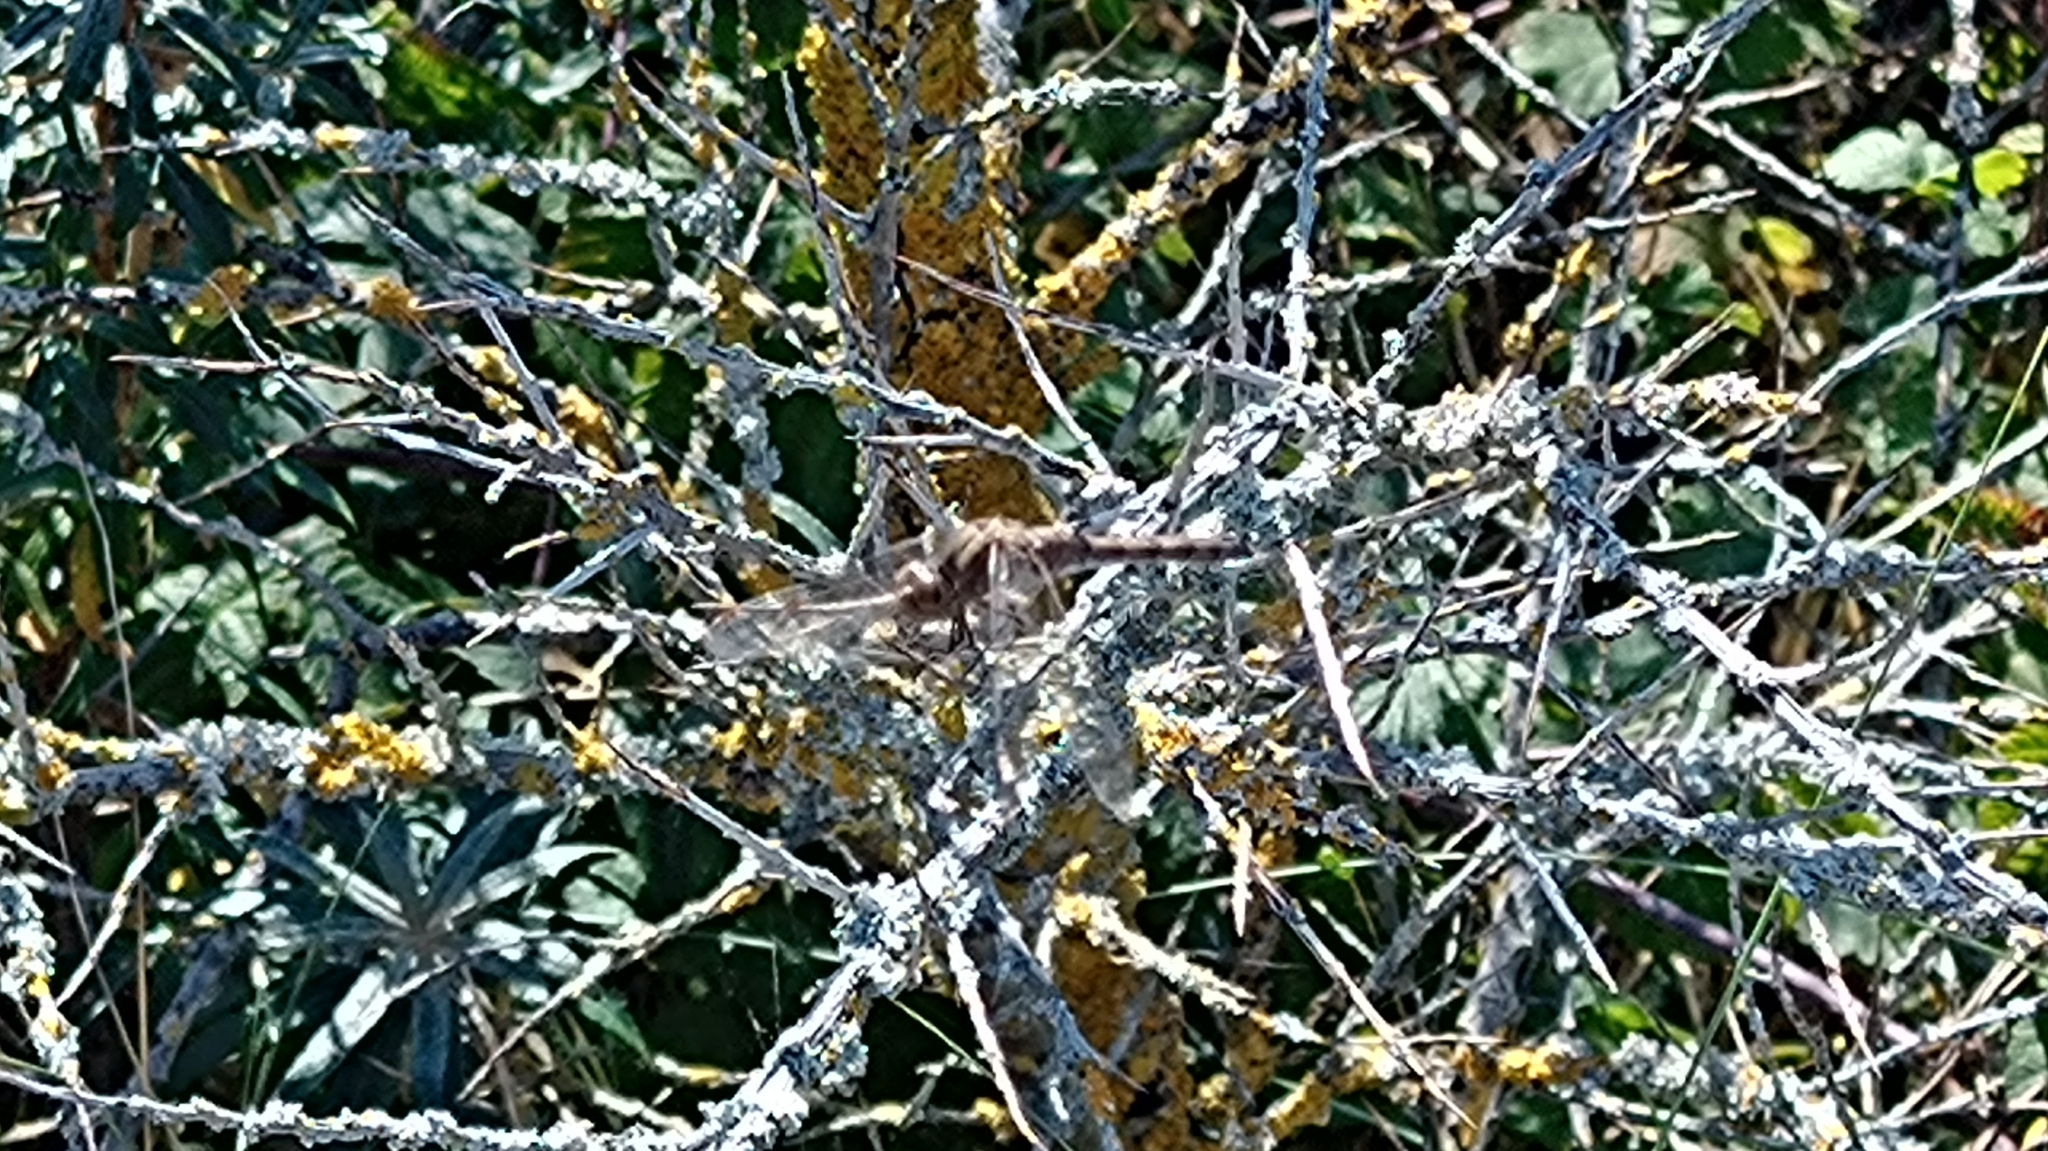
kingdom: Animalia
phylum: Arthropoda
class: Insecta
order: Odonata
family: Libellulidae
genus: Sympetrum
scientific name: Sympetrum striolatum
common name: Common darter
